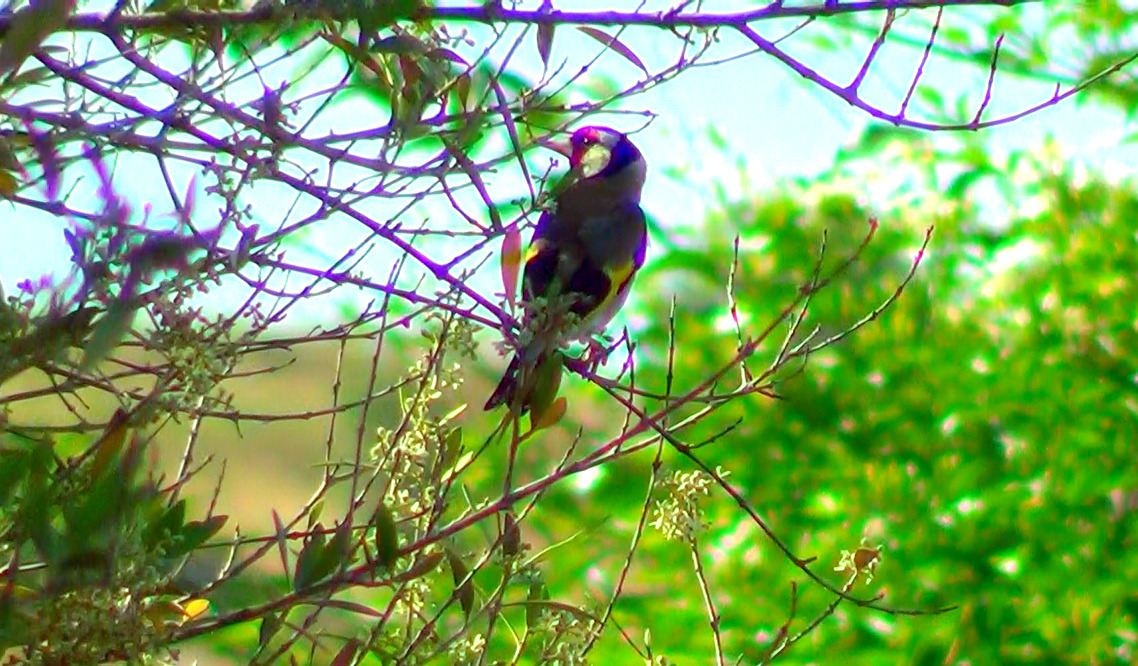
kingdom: Animalia
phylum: Chordata
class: Aves
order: Passeriformes
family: Fringillidae
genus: Carduelis
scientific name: Carduelis carduelis
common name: European goldfinch
